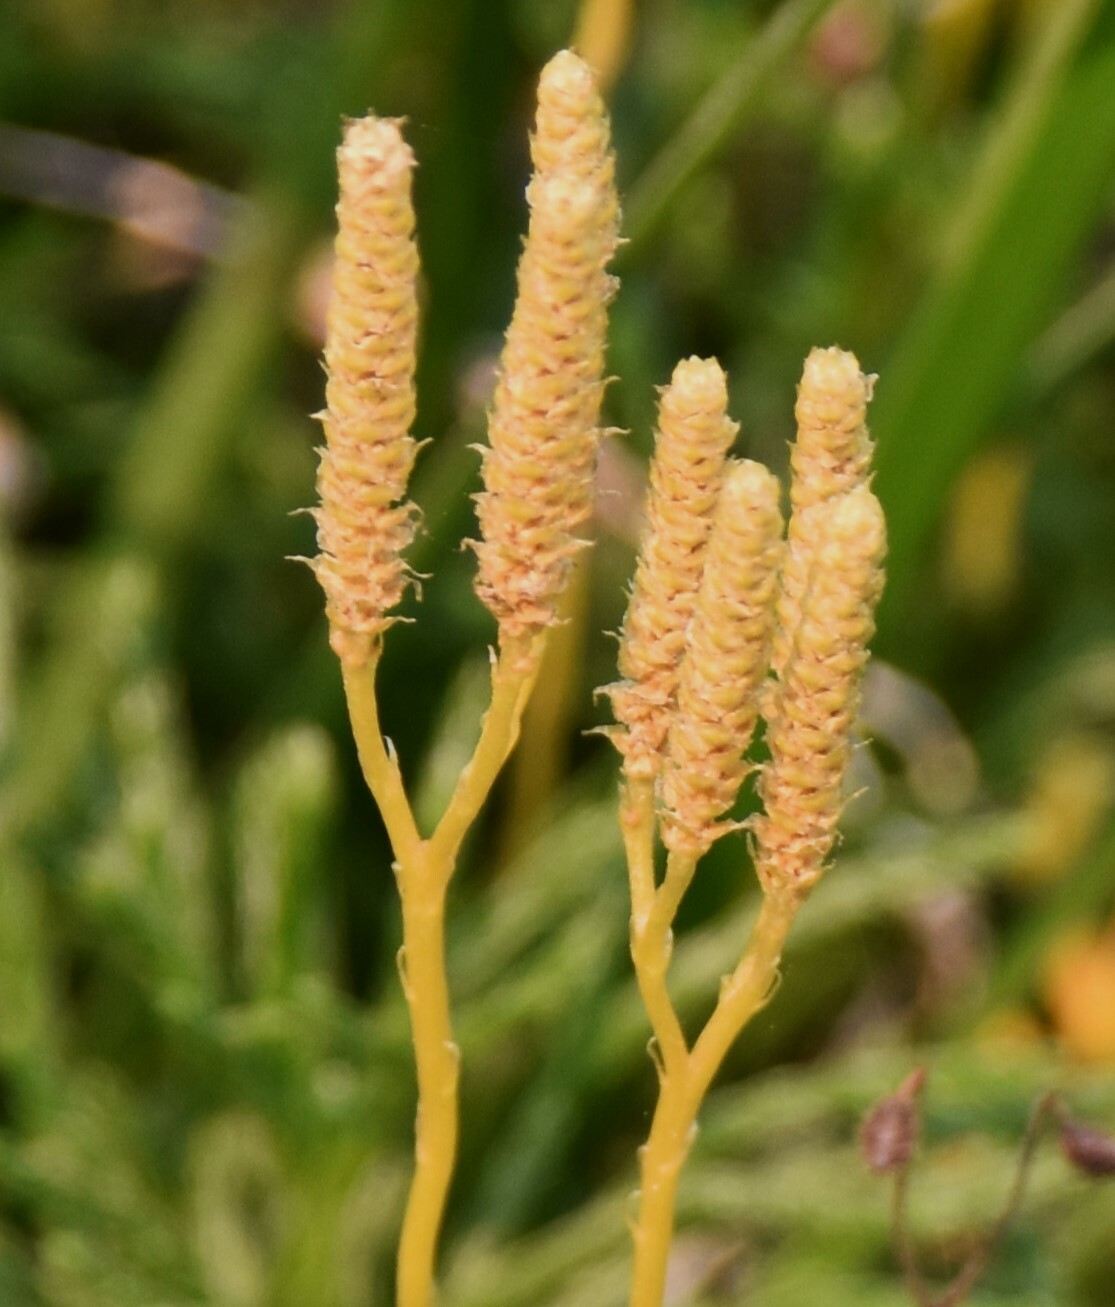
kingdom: Plantae
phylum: Tracheophyta
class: Lycopodiopsida
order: Lycopodiales
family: Lycopodiaceae
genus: Diphasiastrum
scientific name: Diphasiastrum complanatum
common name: Northern running-pine
